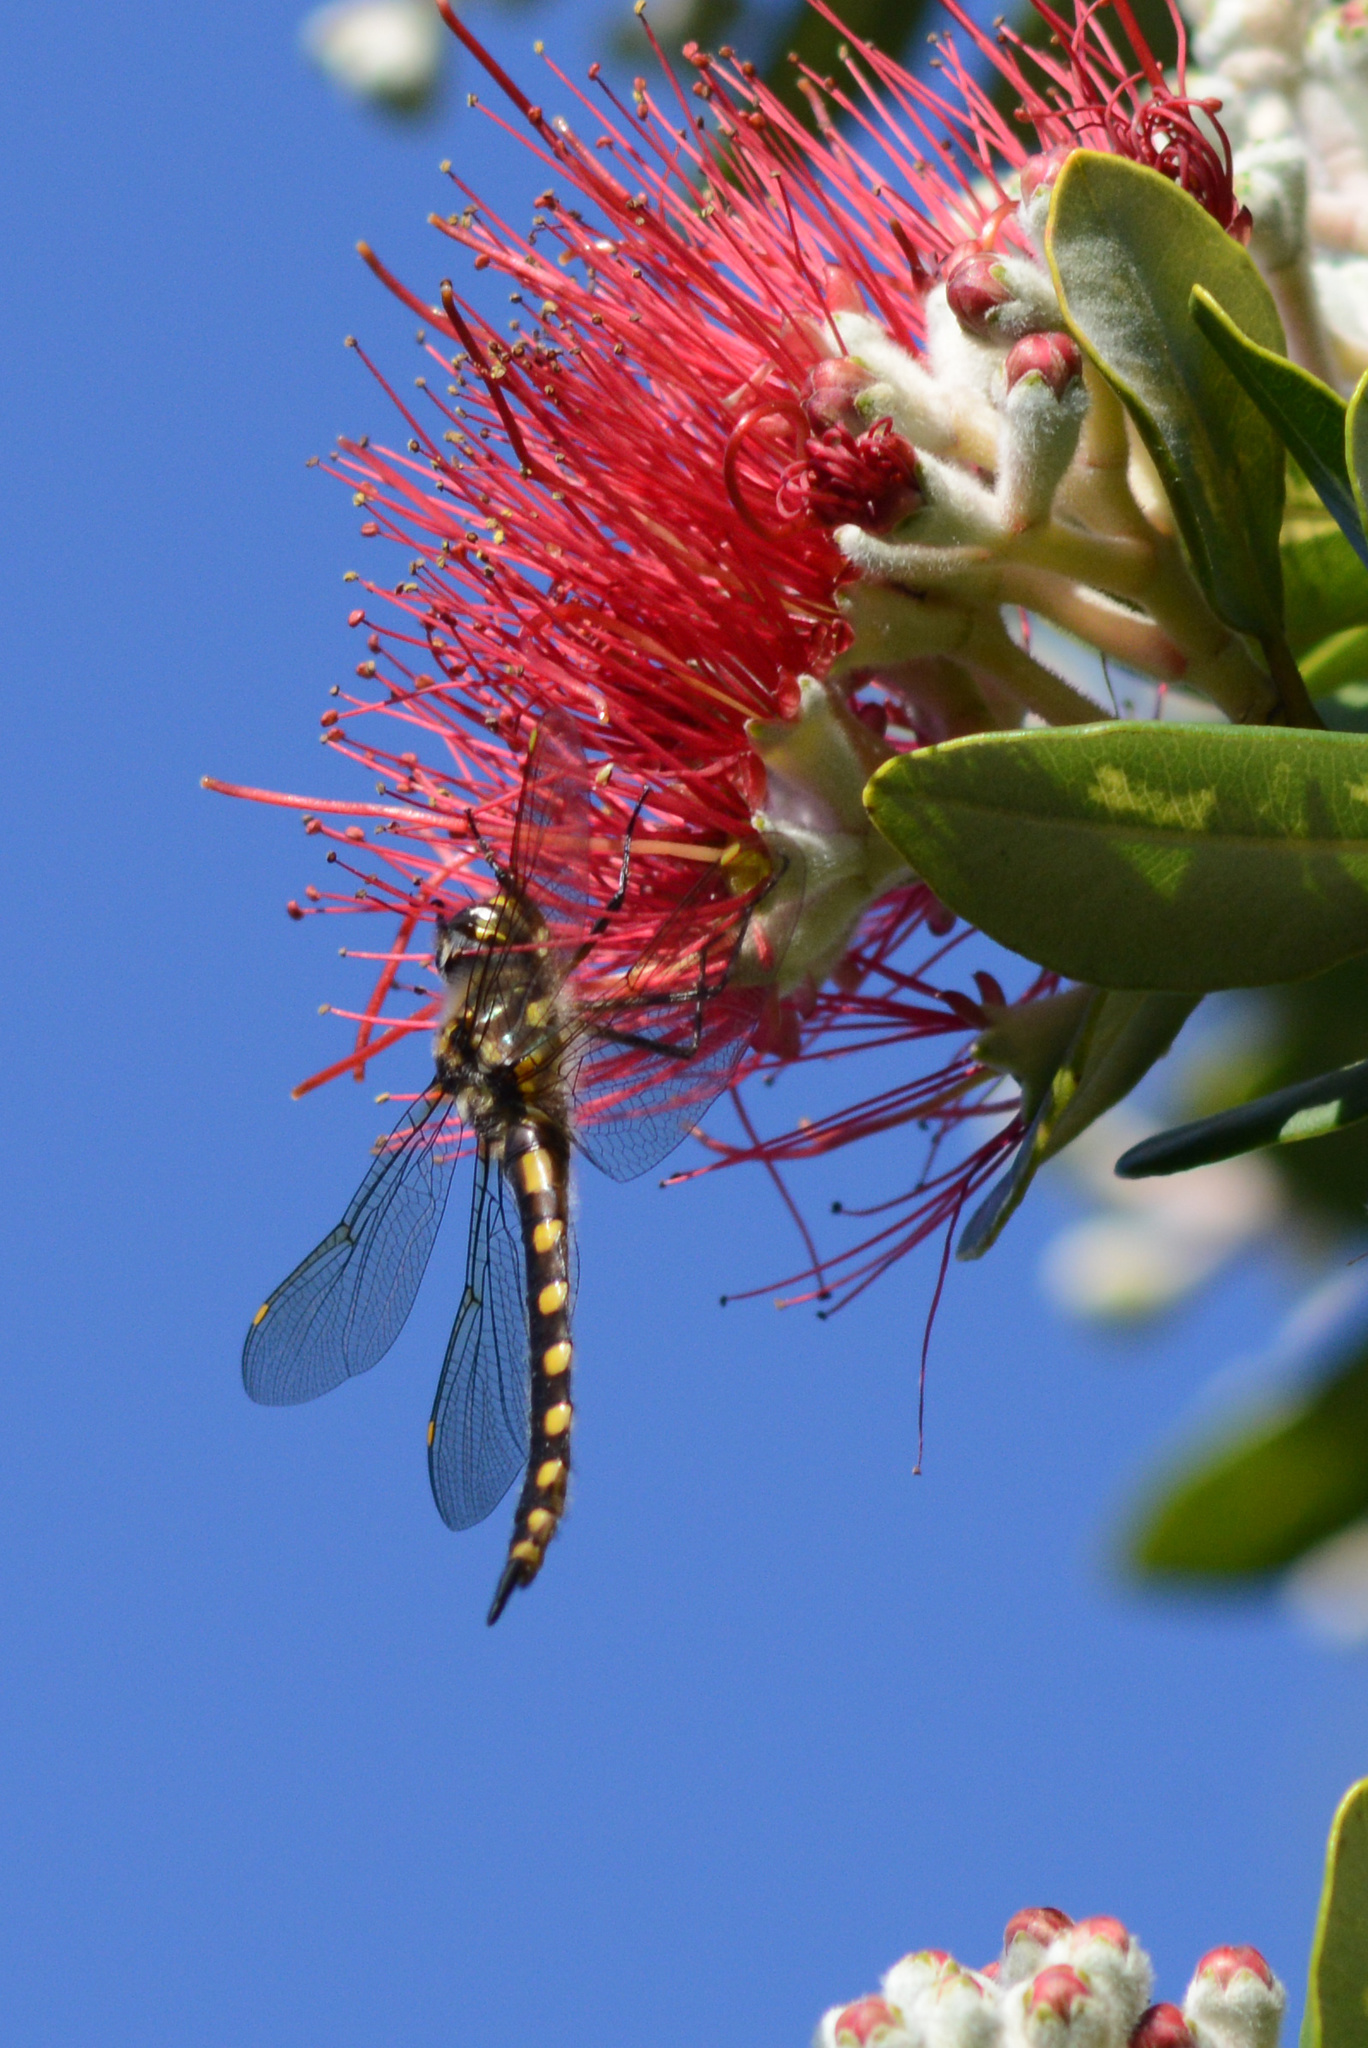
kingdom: Animalia
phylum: Arthropoda
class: Insecta
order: Odonata
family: Corduliidae
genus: Procordulia
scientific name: Procordulia grayi
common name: Yellow spotted dragonfly
